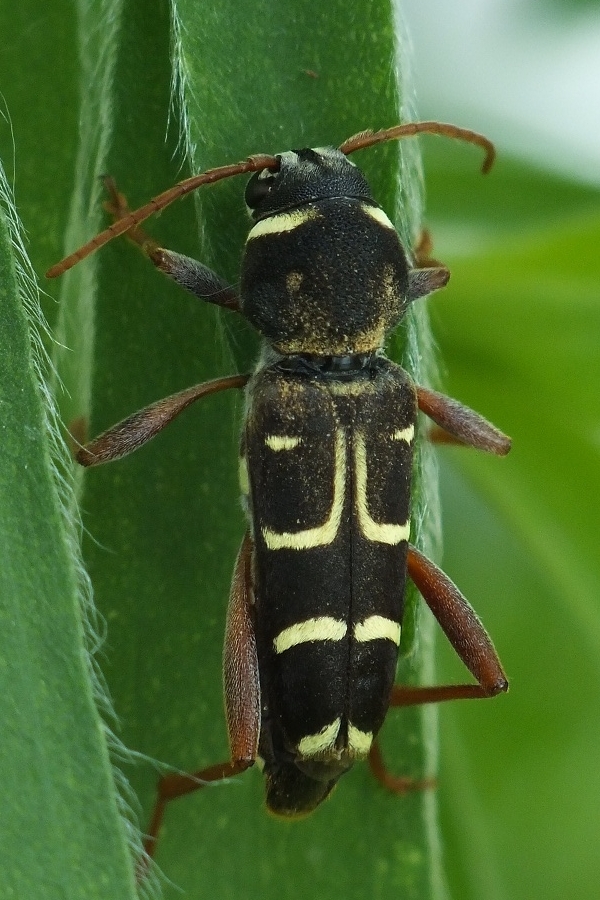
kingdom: Animalia
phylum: Arthropoda
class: Insecta
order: Coleoptera
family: Cerambycidae
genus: Xylotrechus
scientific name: Xylotrechus arvicola
